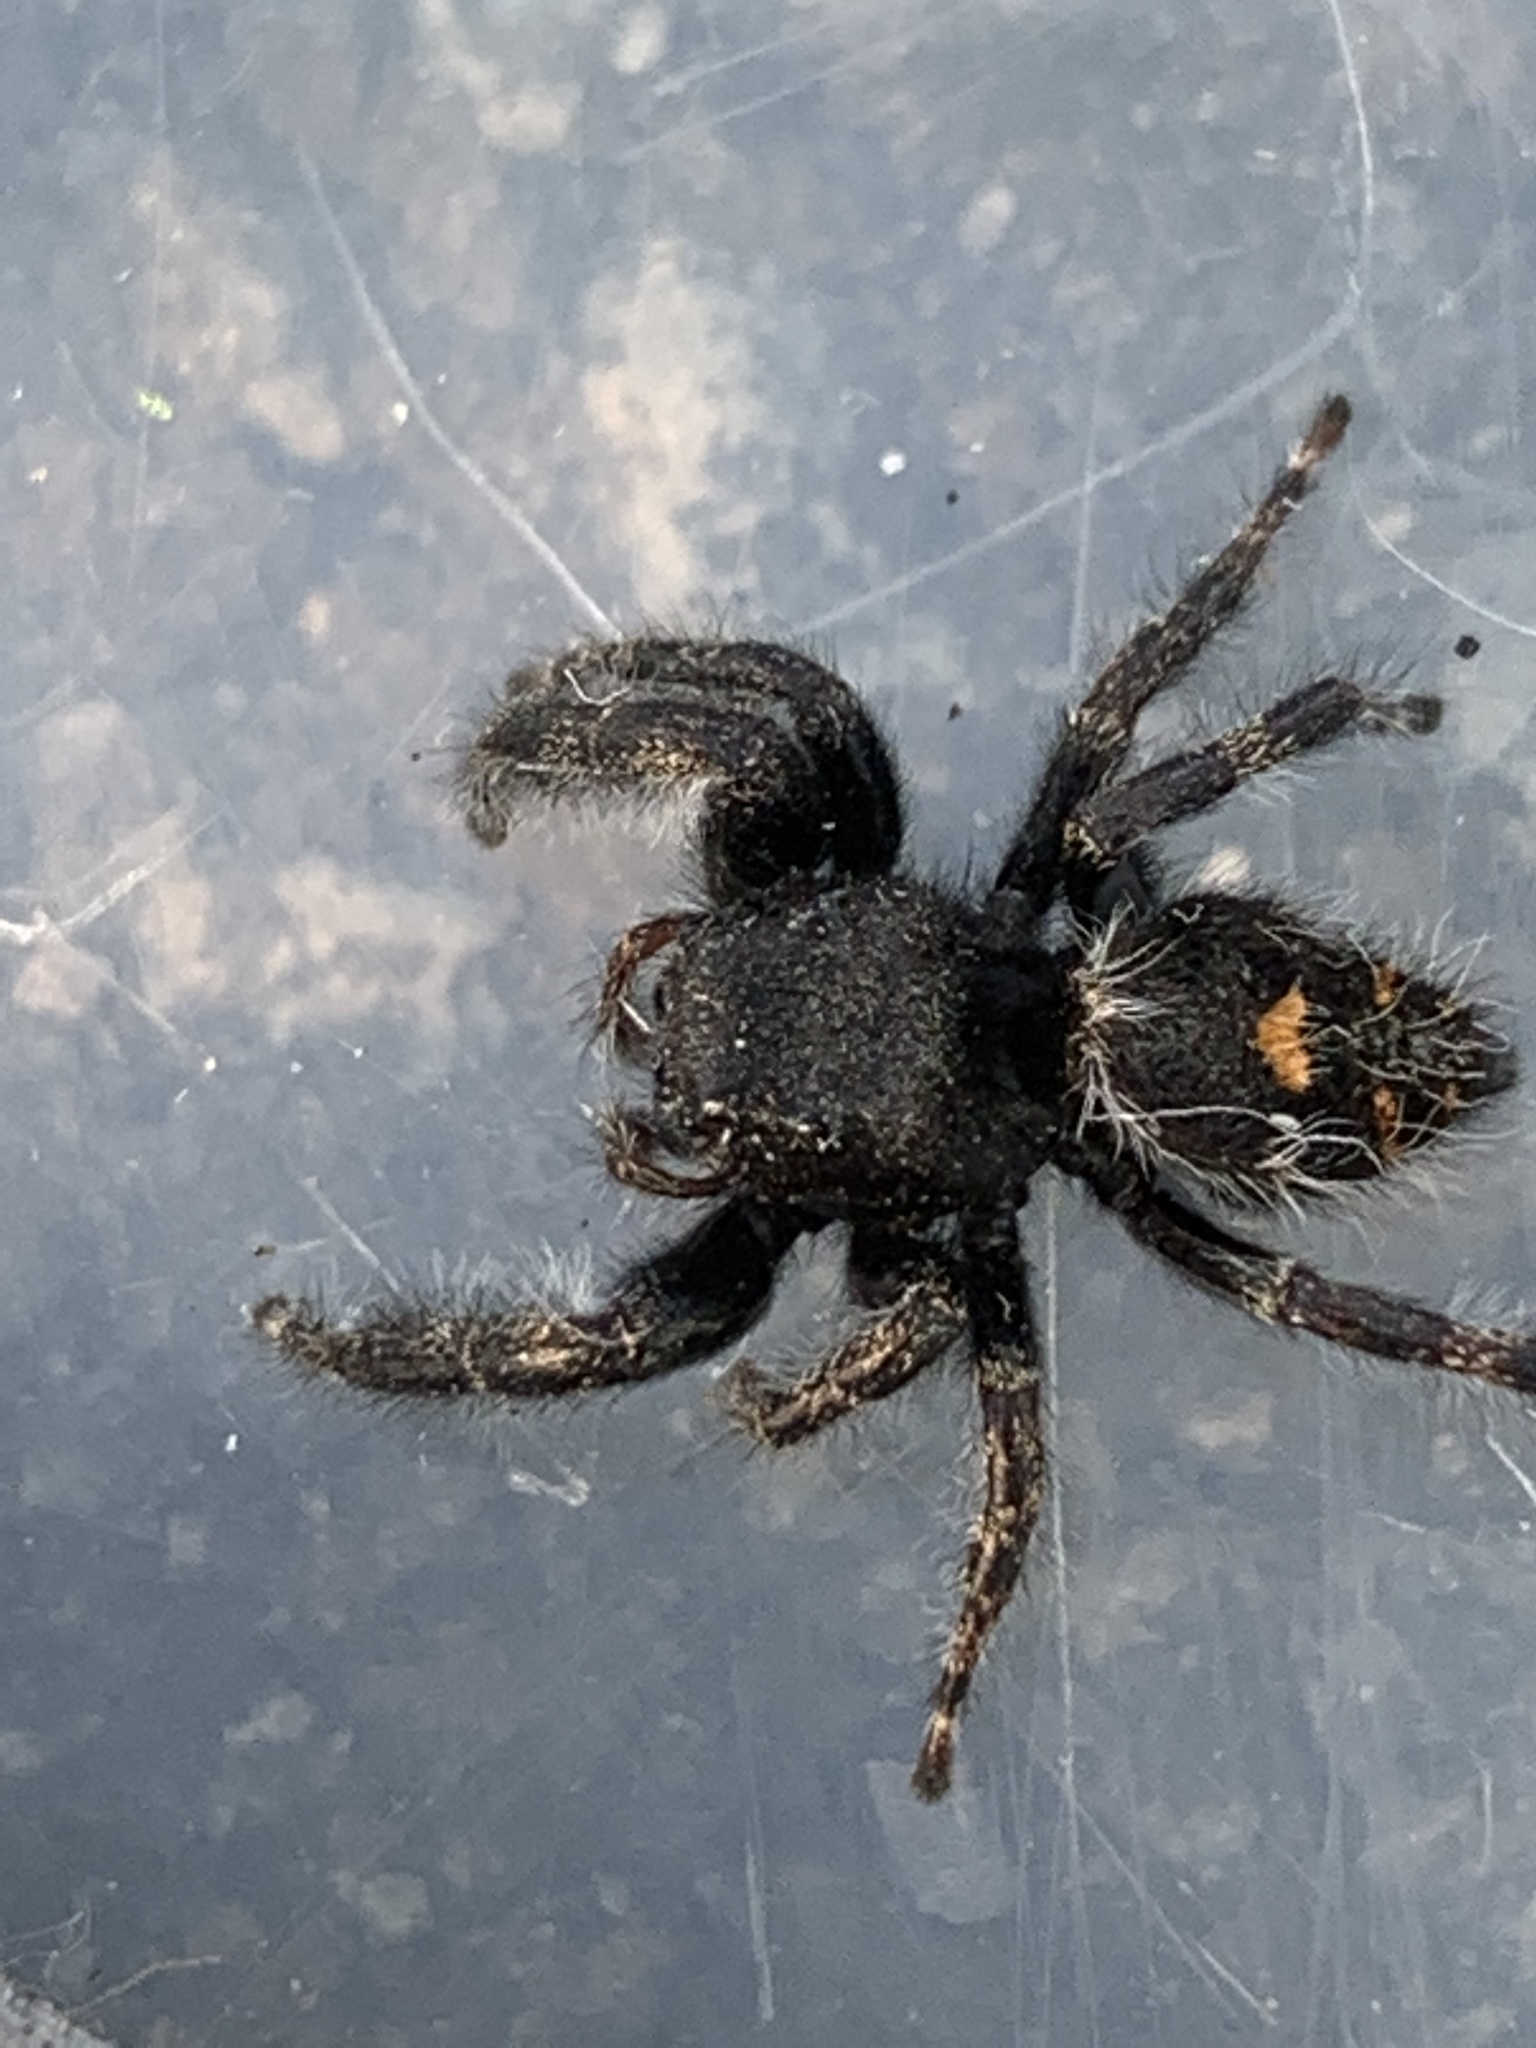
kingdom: Animalia
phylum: Arthropoda
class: Arachnida
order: Araneae
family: Salticidae
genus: Phidippus
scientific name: Phidippus audax
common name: Bold jumper
